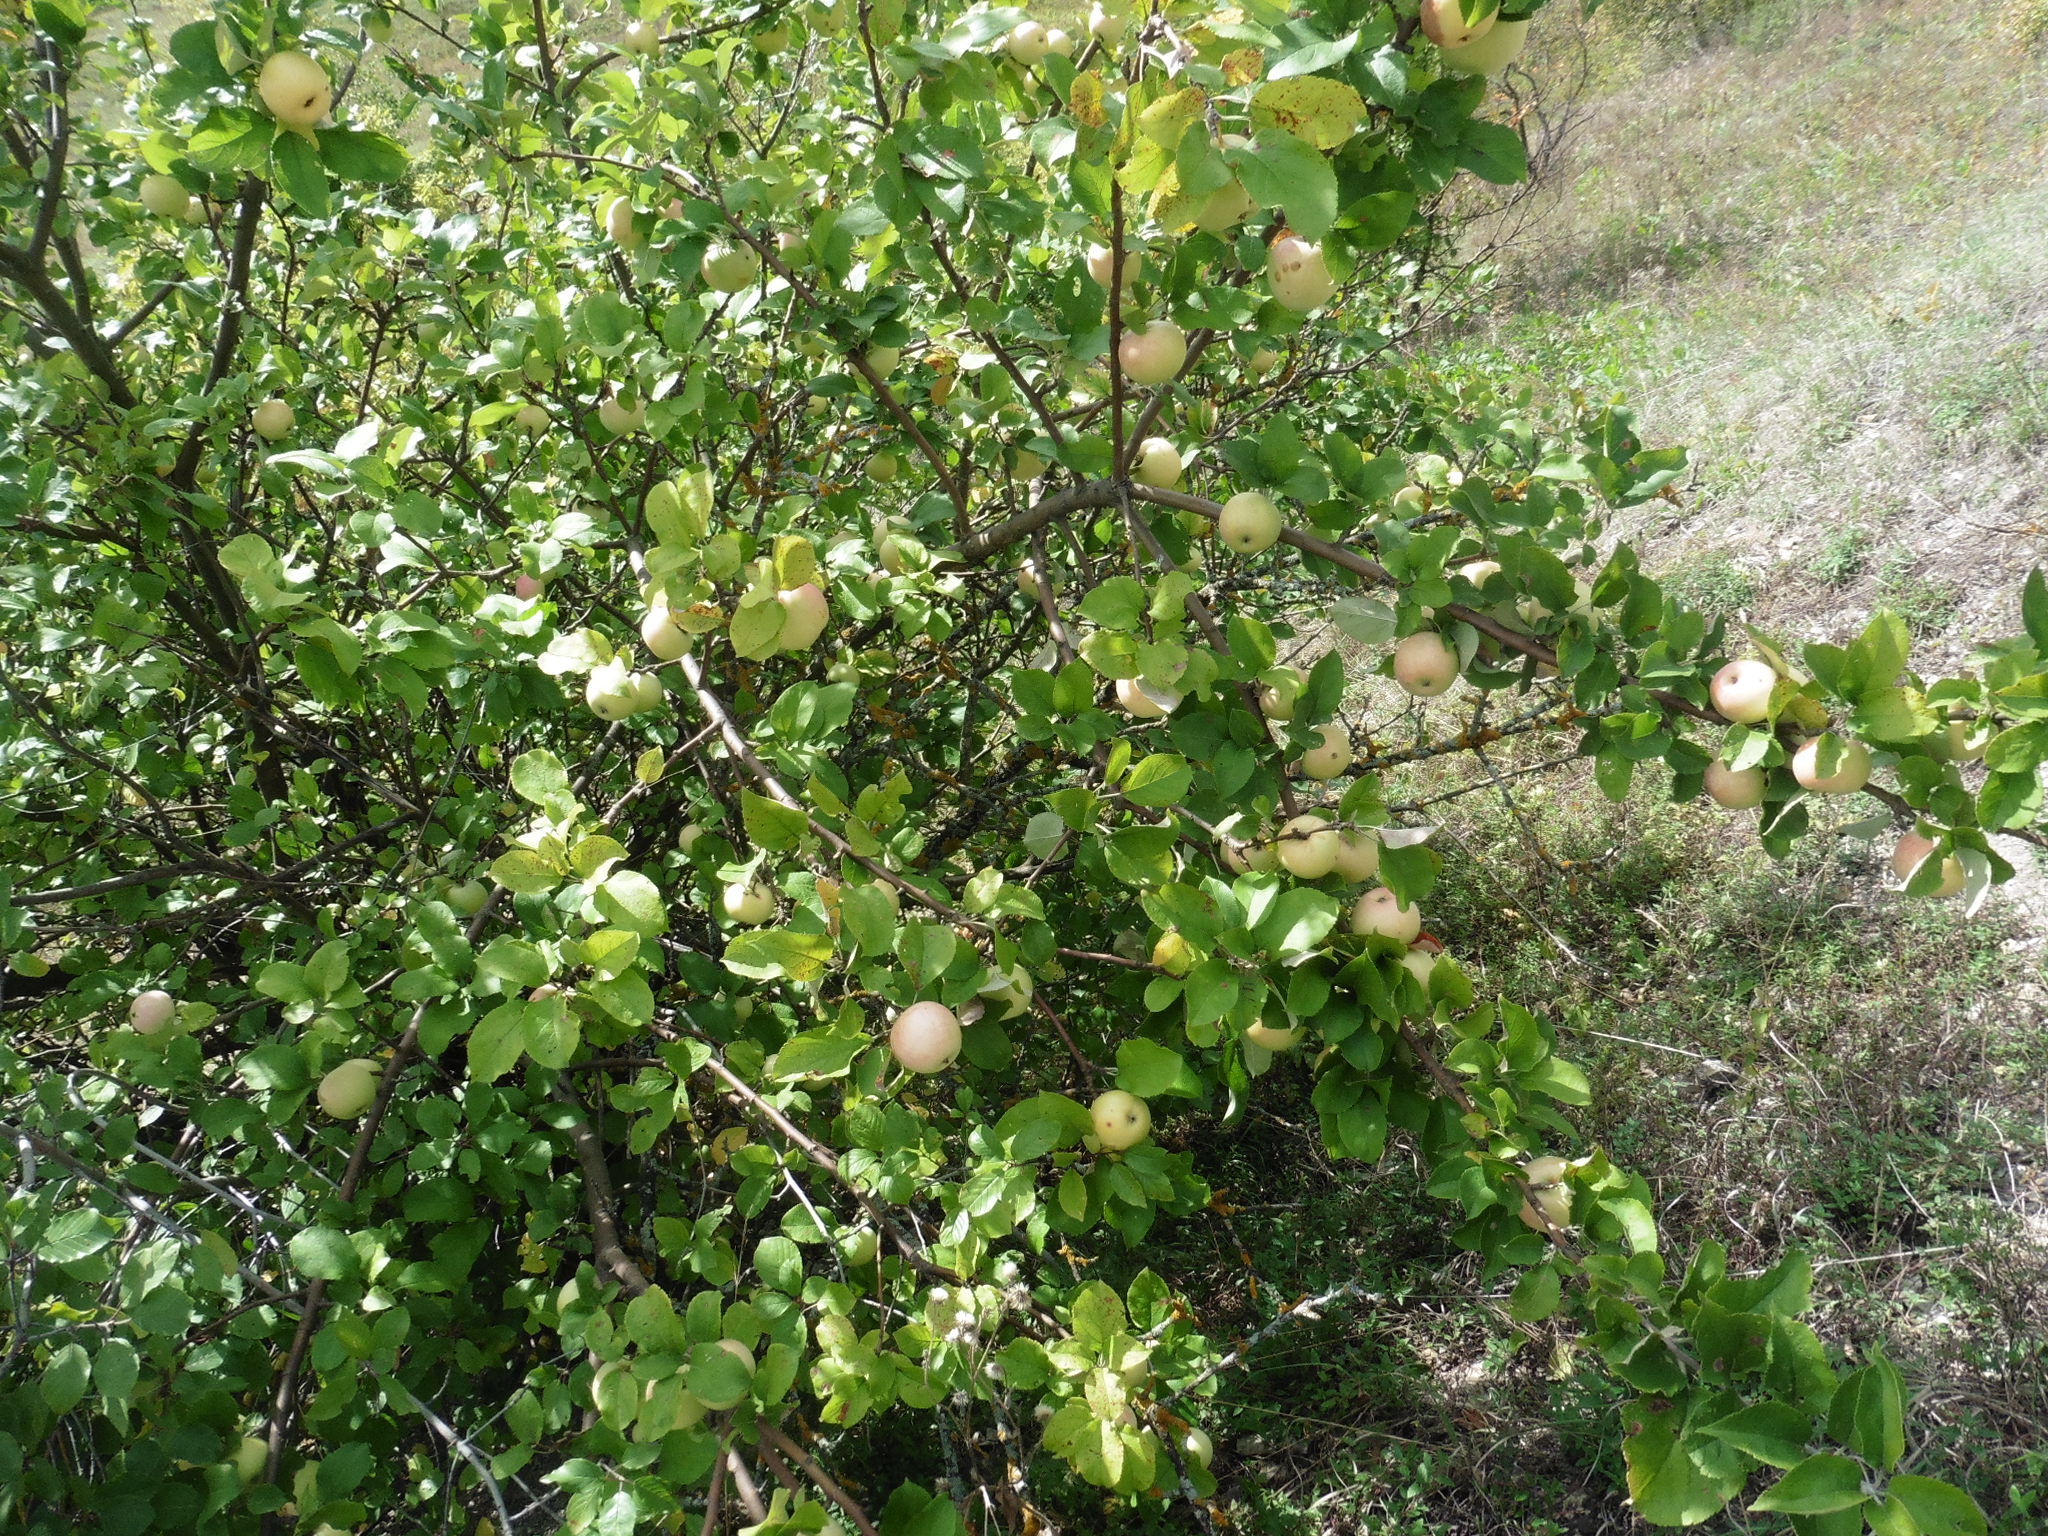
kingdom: Plantae
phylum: Tracheophyta
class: Magnoliopsida
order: Rosales
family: Rosaceae
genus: Malus
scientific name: Malus domestica
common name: Apple
